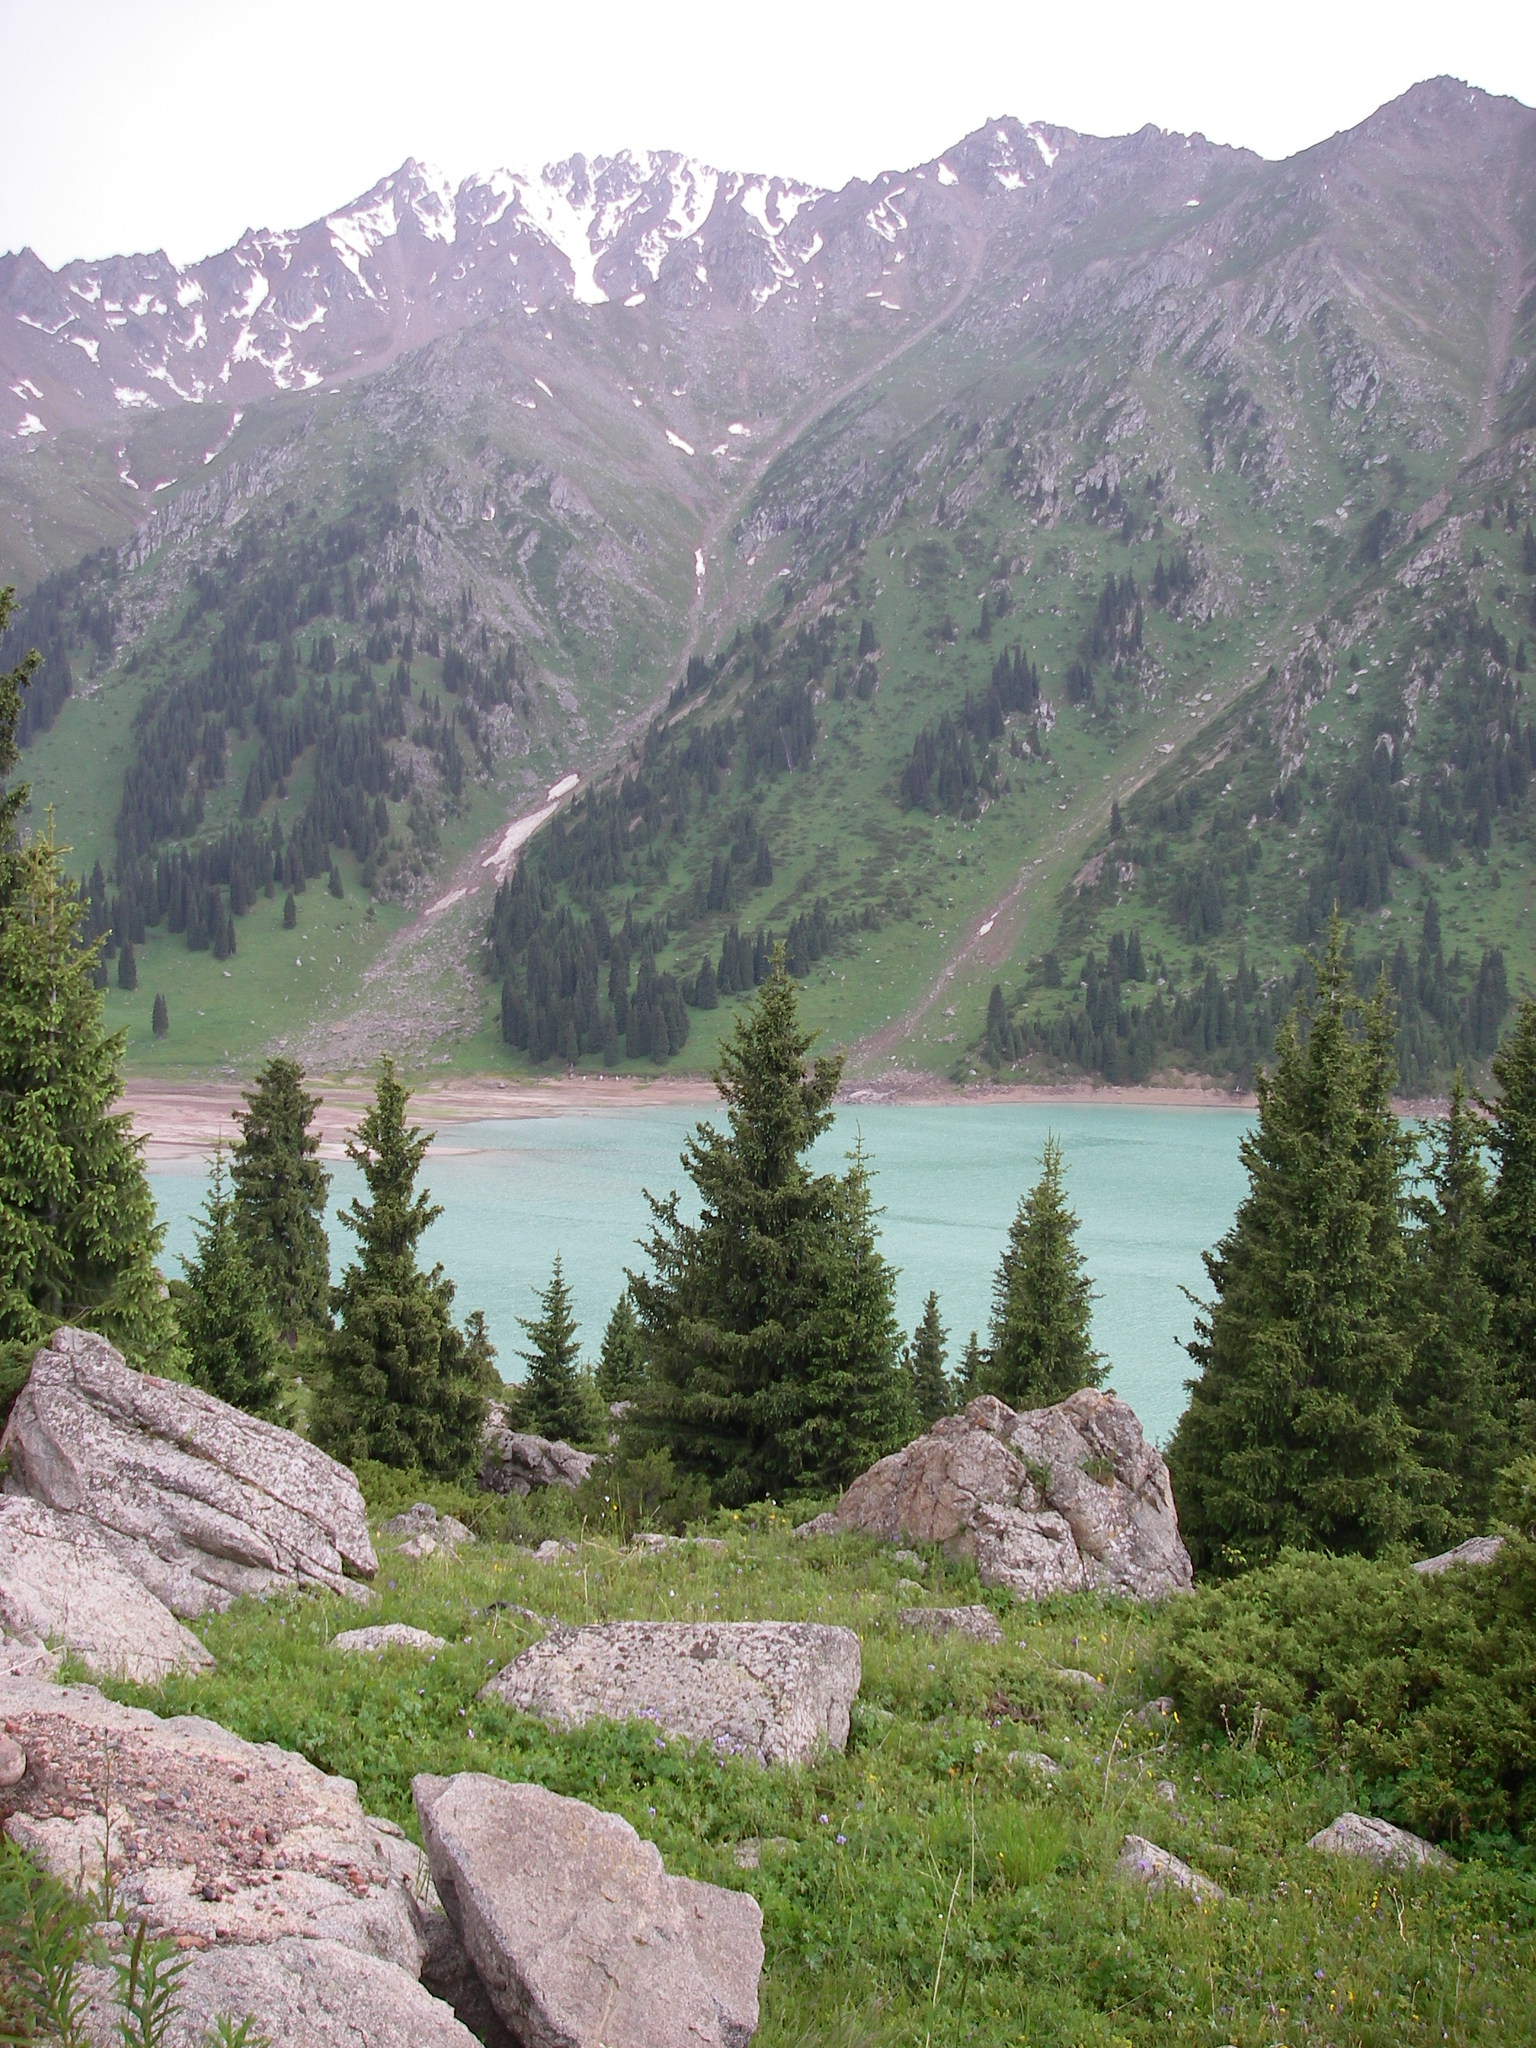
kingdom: Plantae
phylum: Tracheophyta
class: Pinopsida
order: Pinales
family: Pinaceae
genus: Picea
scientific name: Picea schrenkiana
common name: Asian spruce
